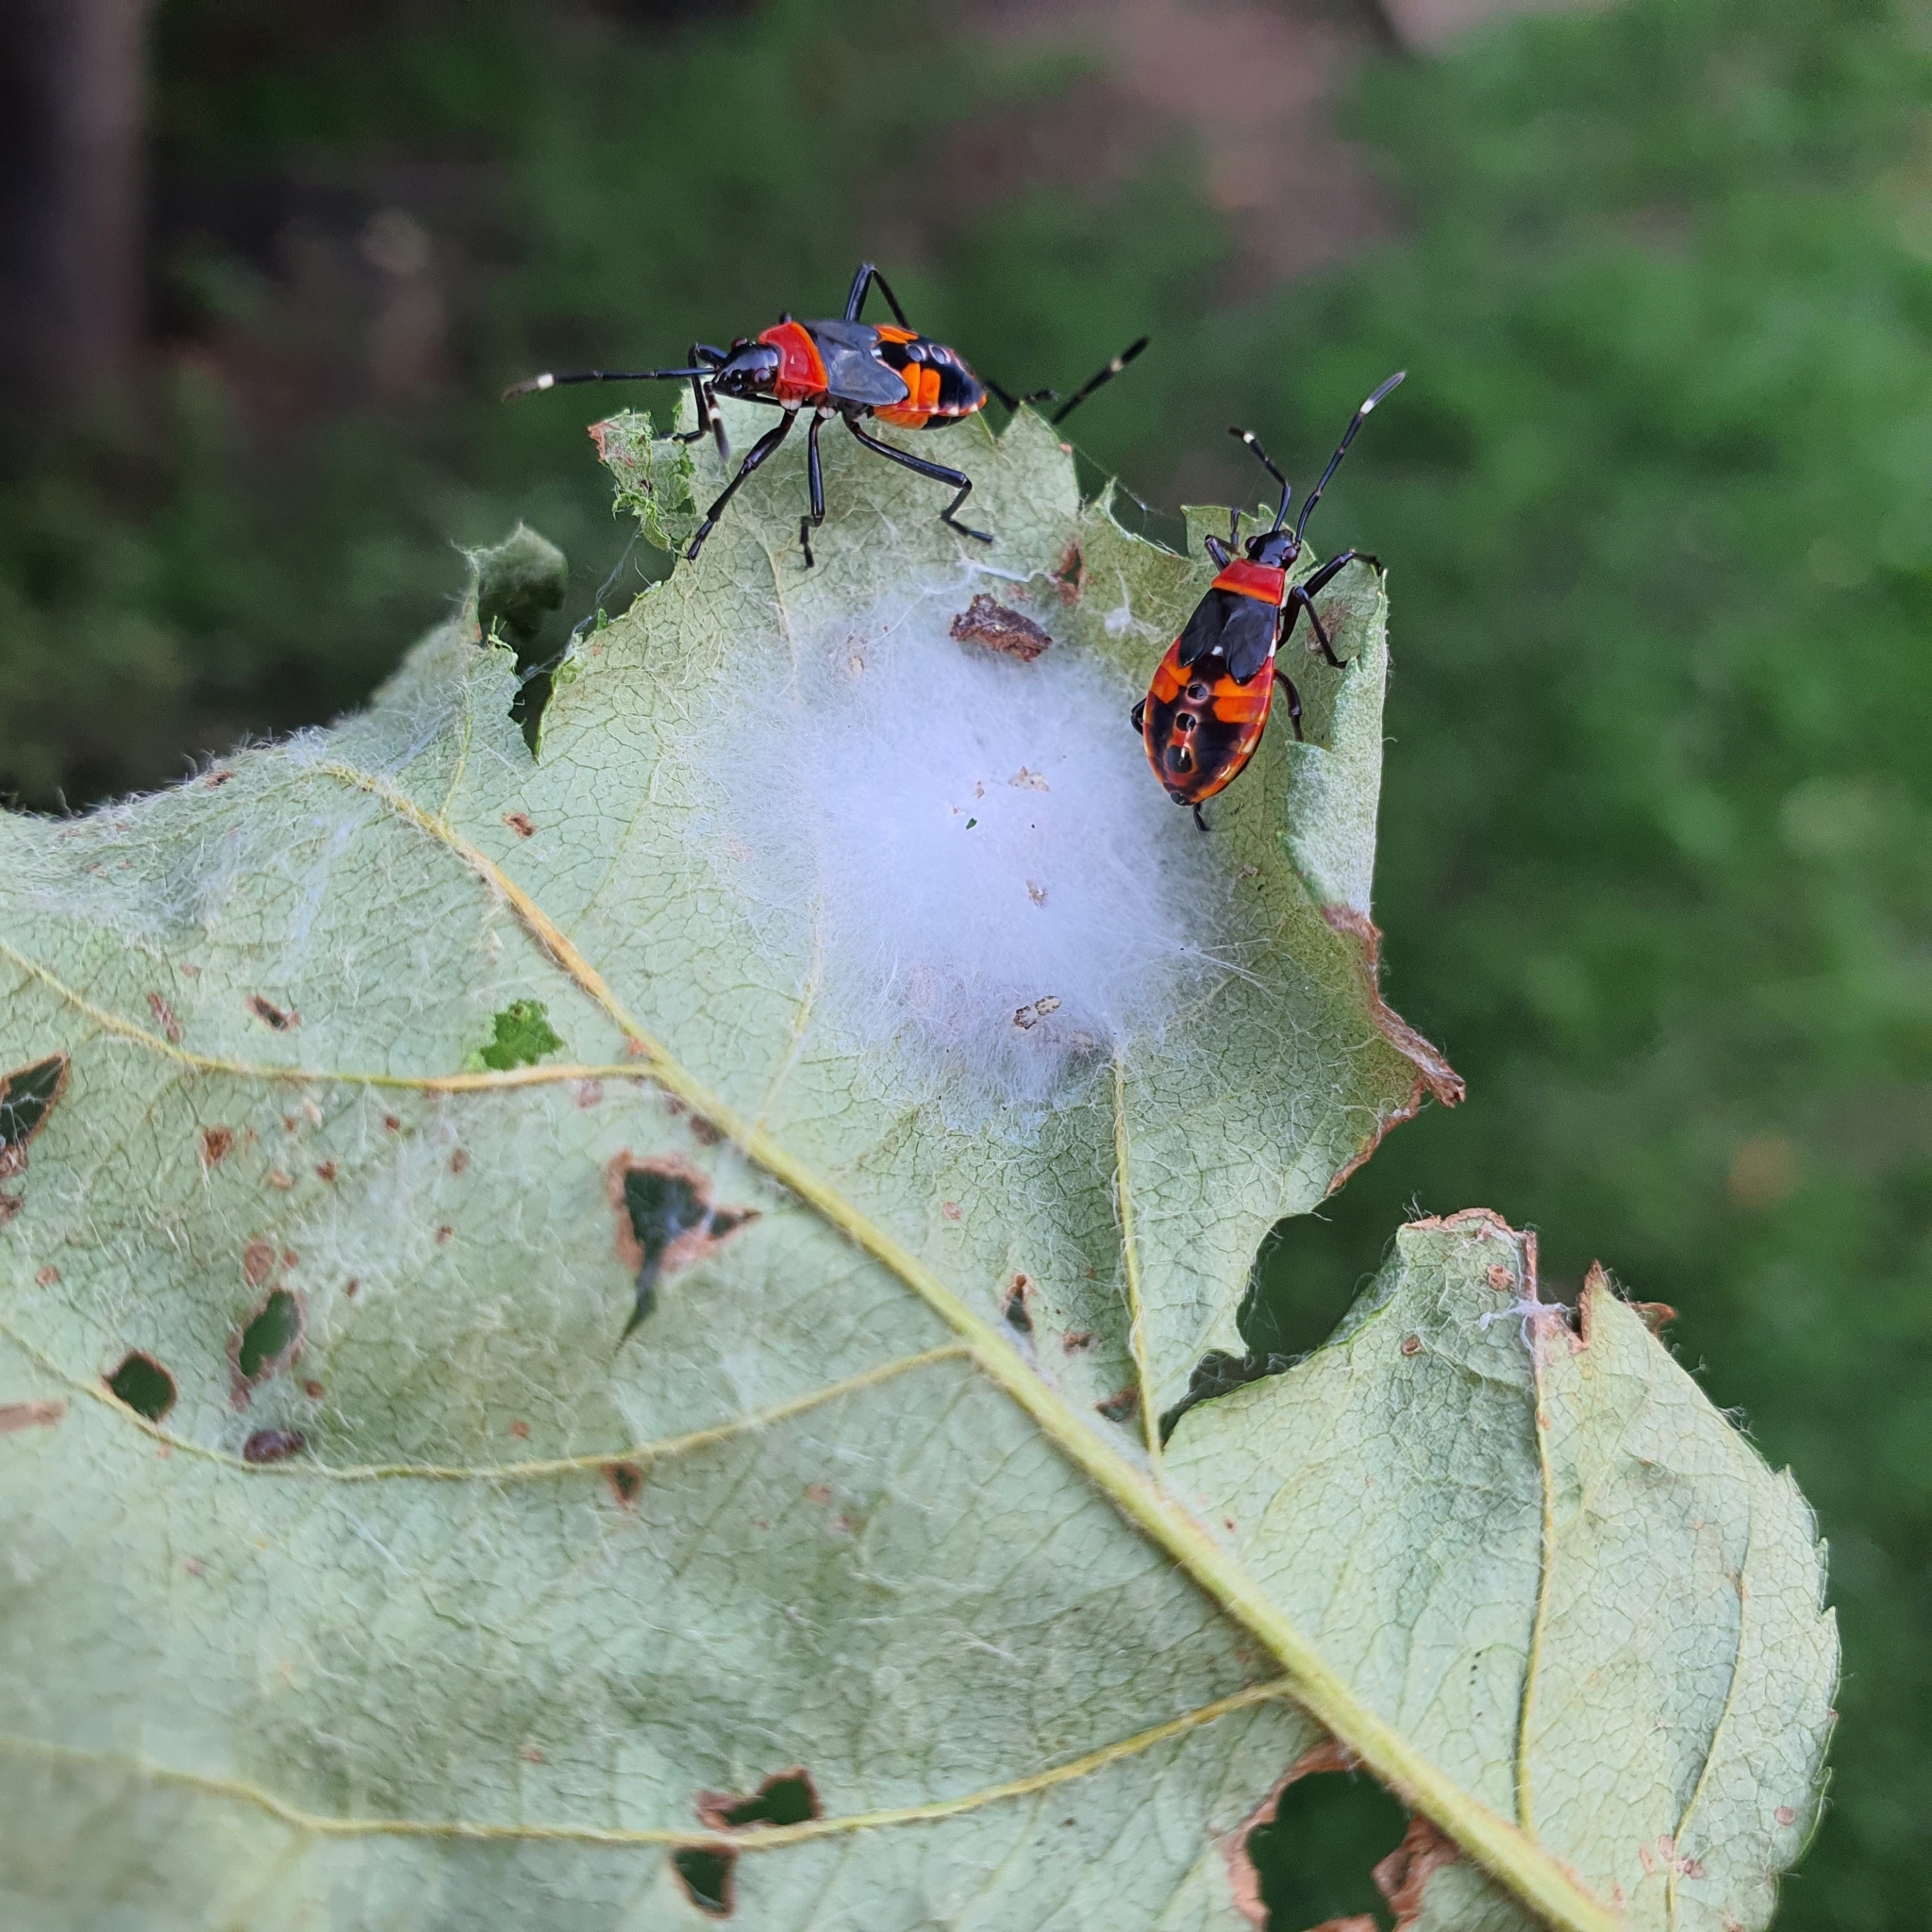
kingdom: Animalia
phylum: Arthropoda
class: Insecta
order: Hemiptera
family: Pyrrhocoridae
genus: Dindymus
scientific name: Dindymus
